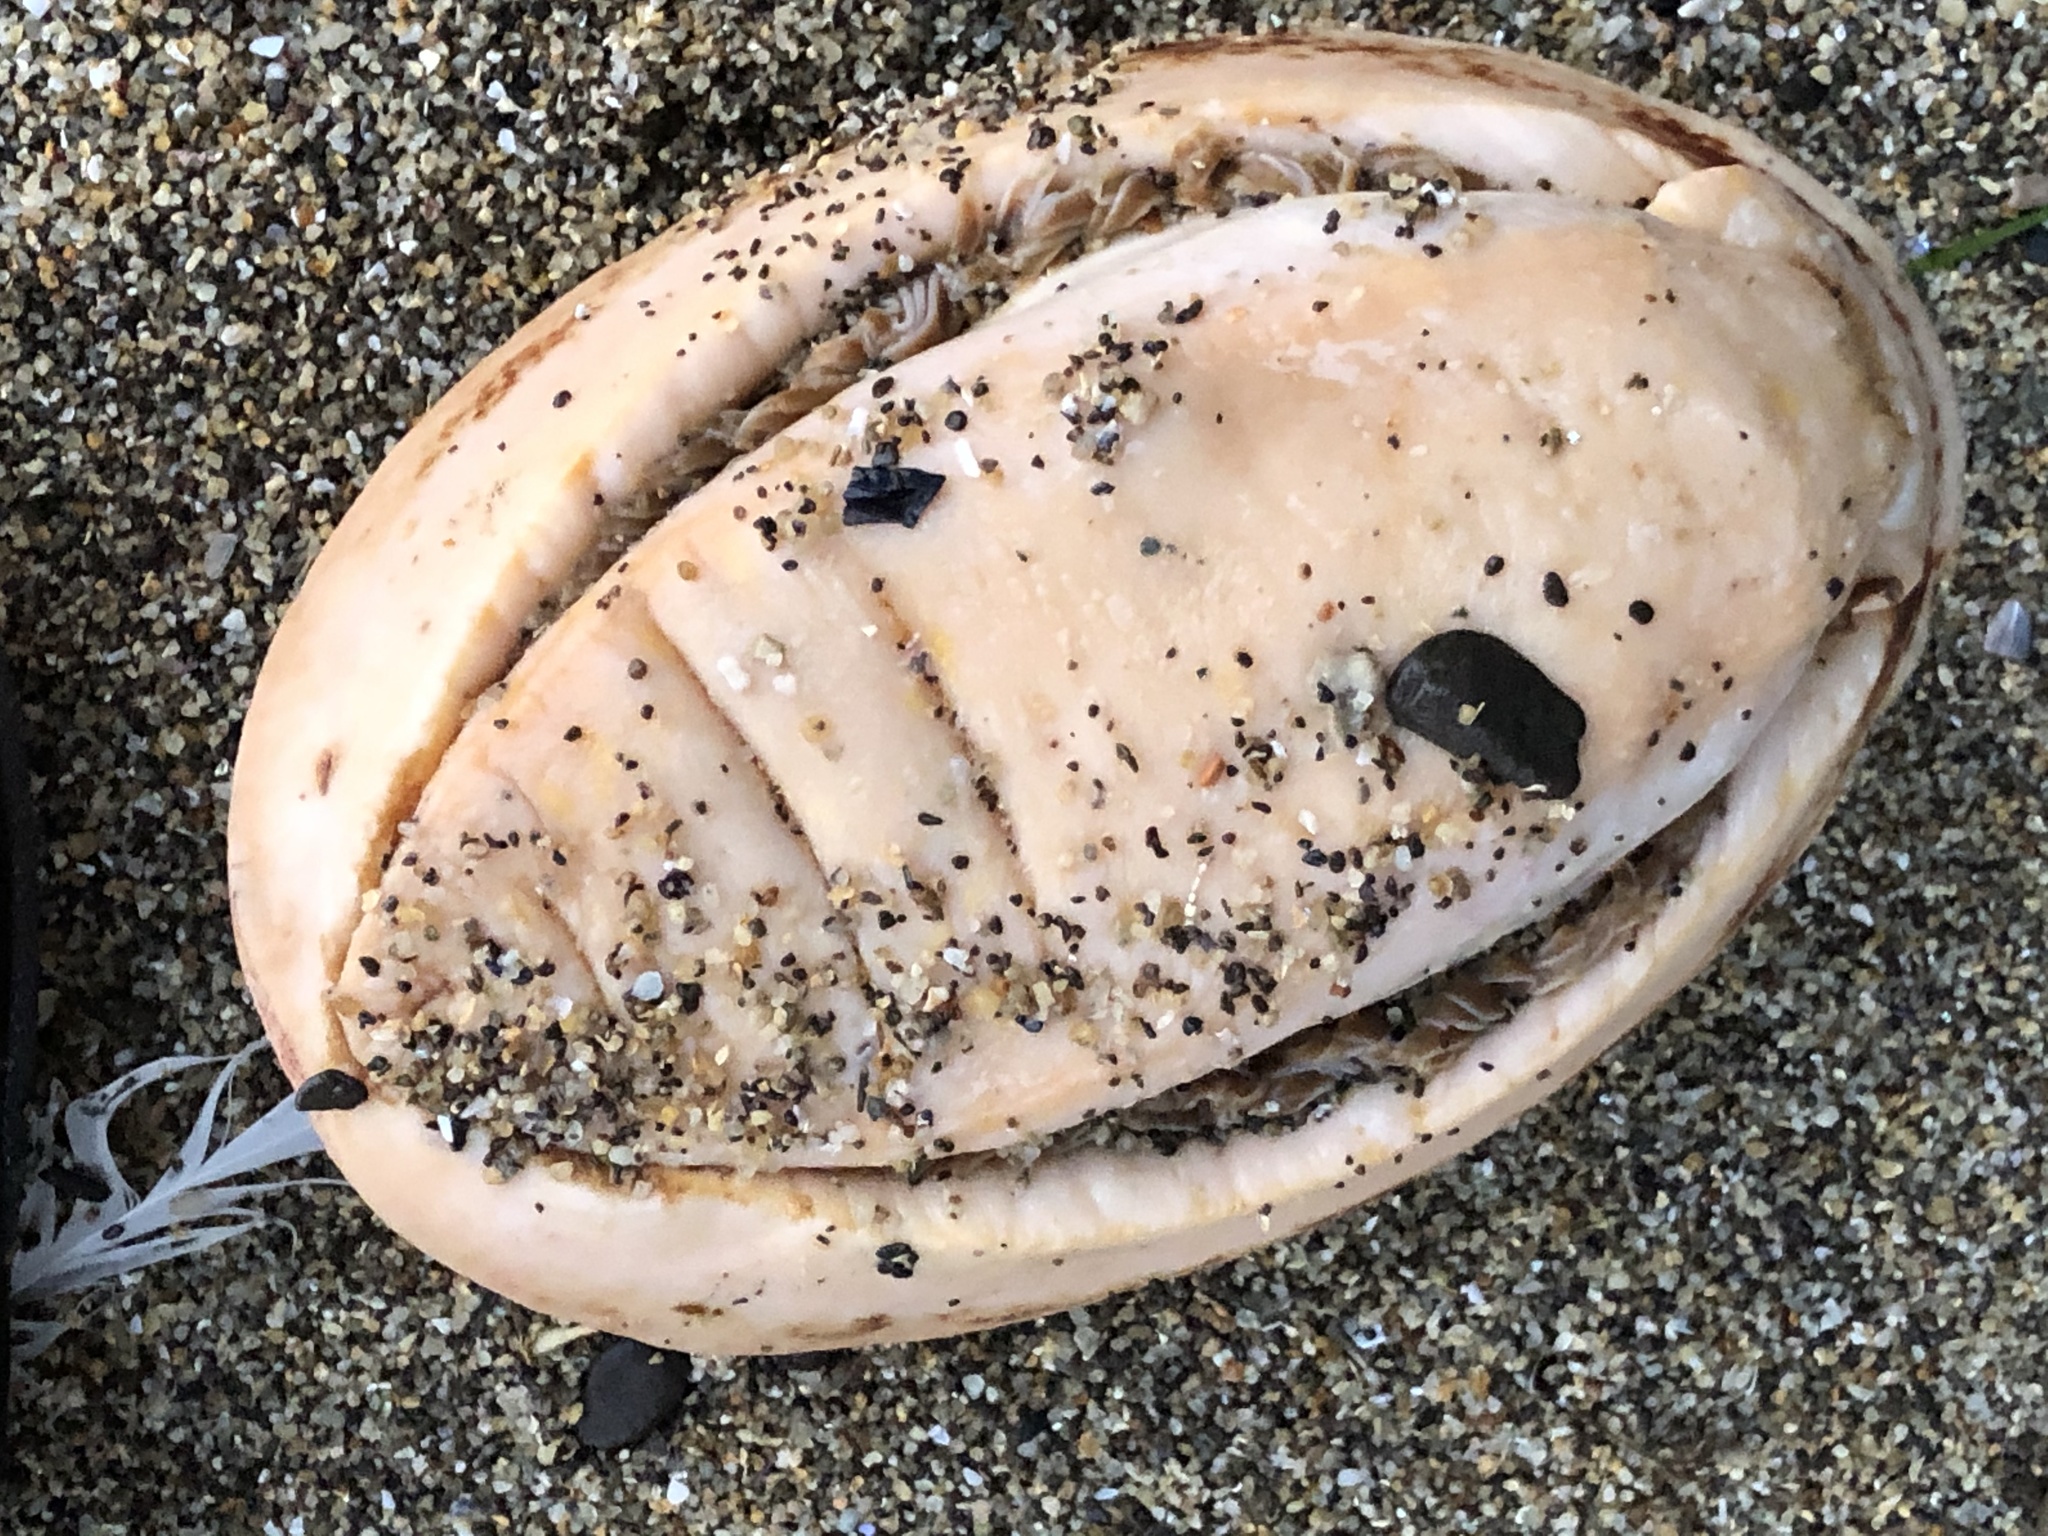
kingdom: Animalia
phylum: Mollusca
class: Polyplacophora
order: Chitonida
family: Acanthochitonidae
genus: Cryptochiton
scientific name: Cryptochiton stelleri
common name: Giant pacific chiton
